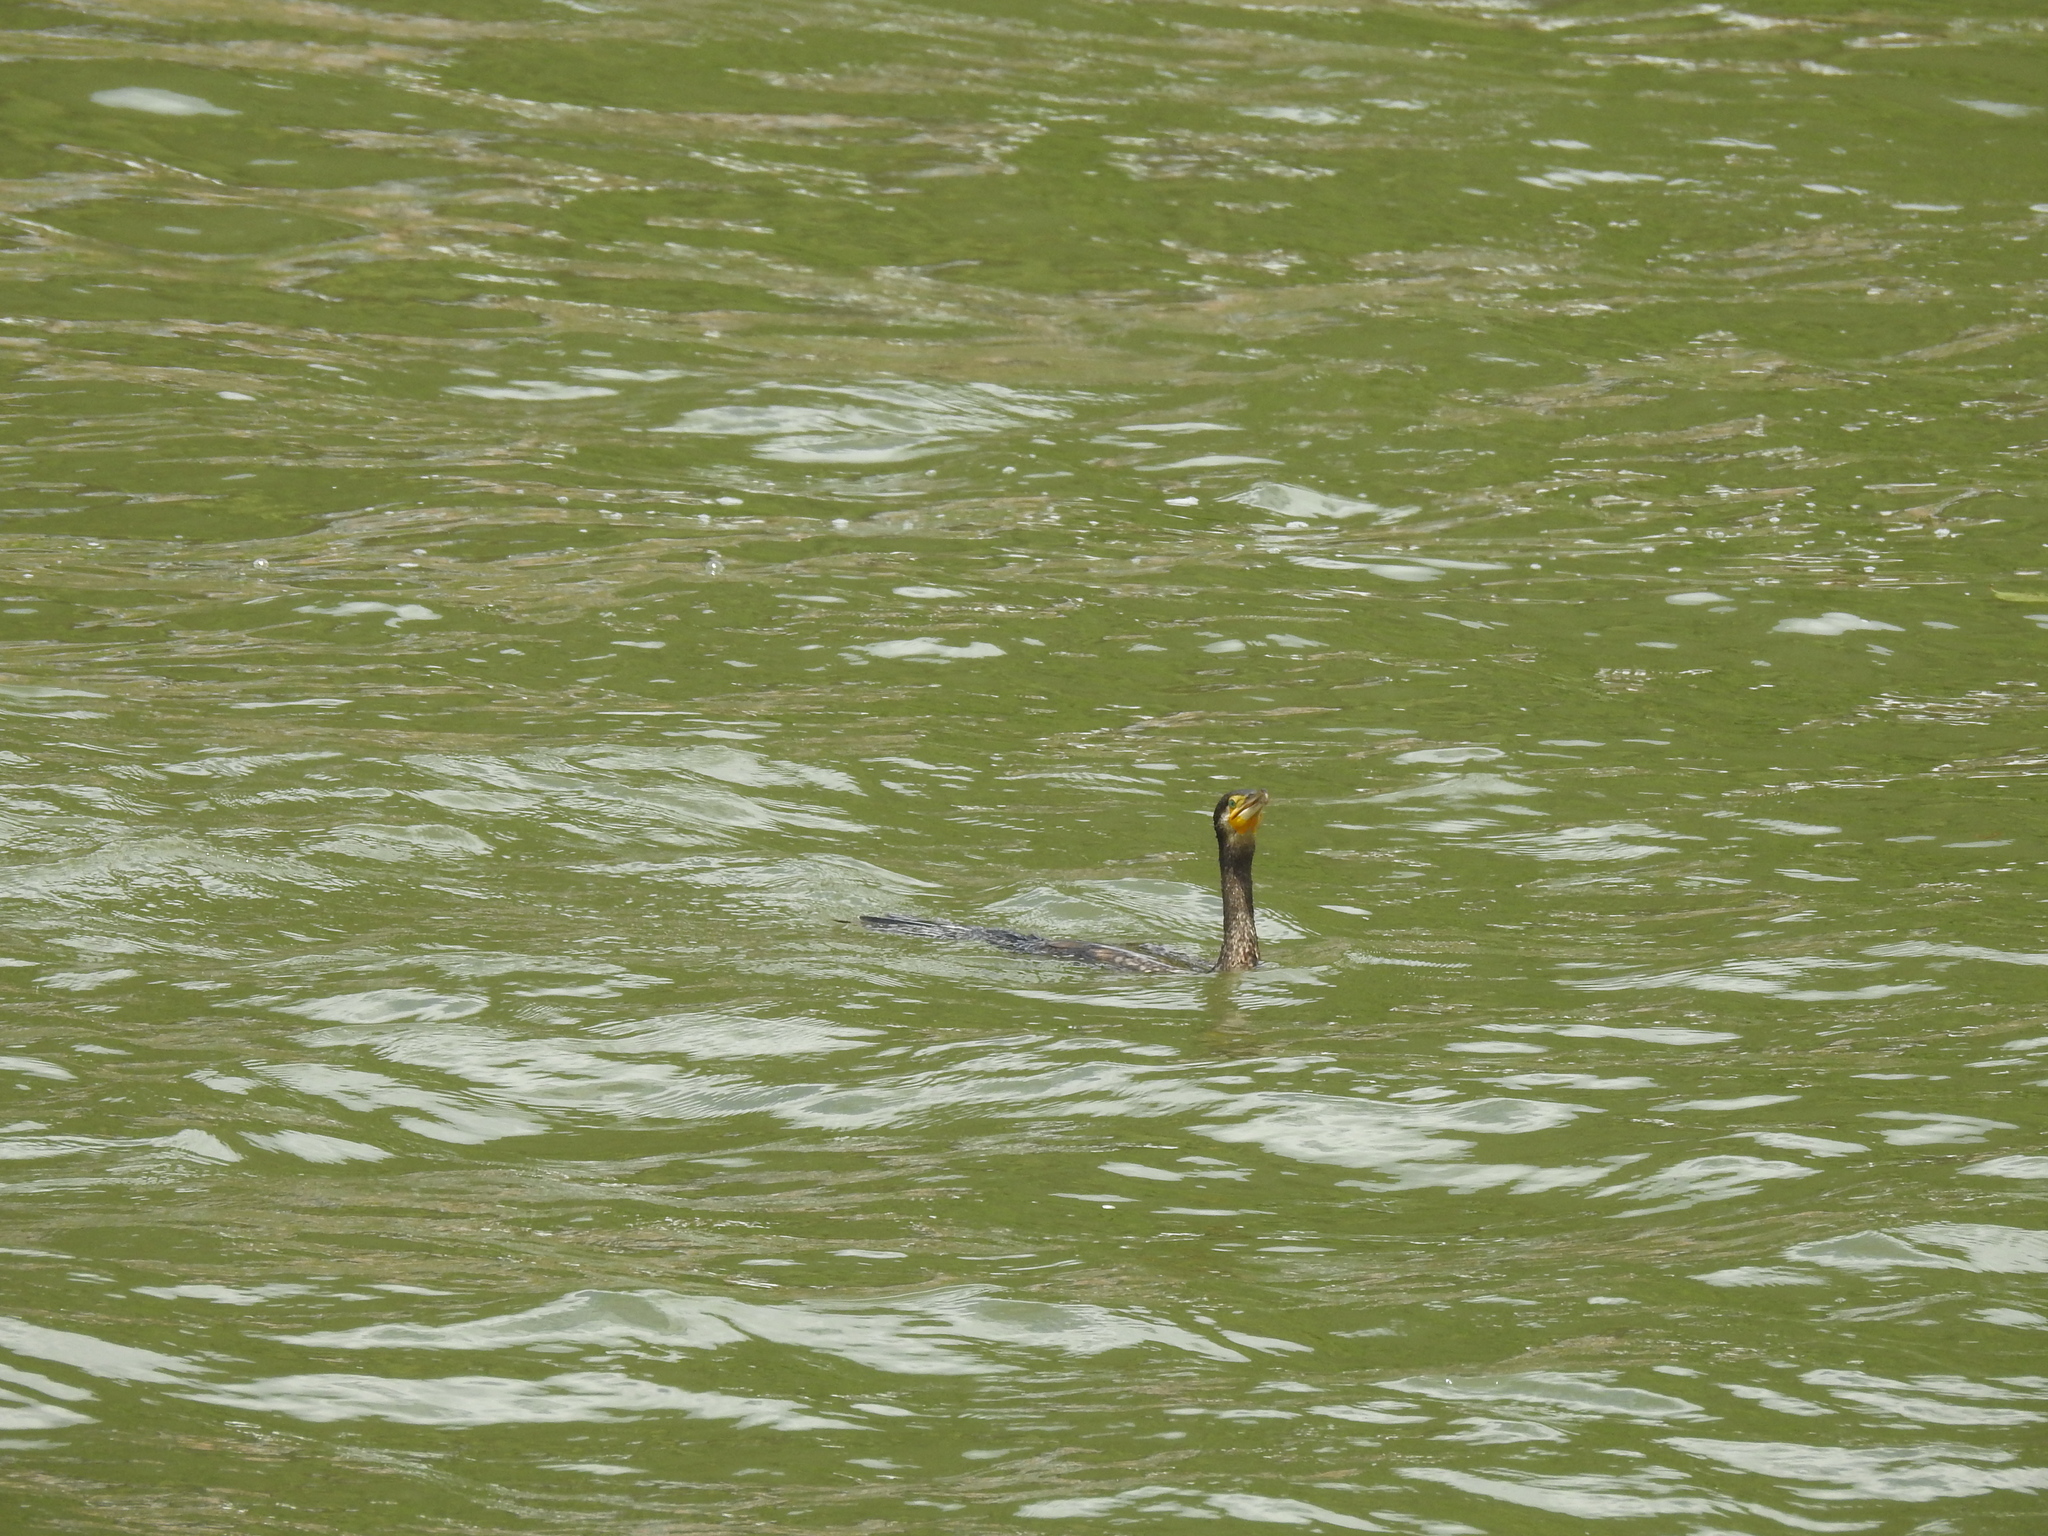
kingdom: Animalia
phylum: Chordata
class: Aves
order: Suliformes
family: Phalacrocoracidae
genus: Phalacrocorax
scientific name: Phalacrocorax carbo
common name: Great cormorant
